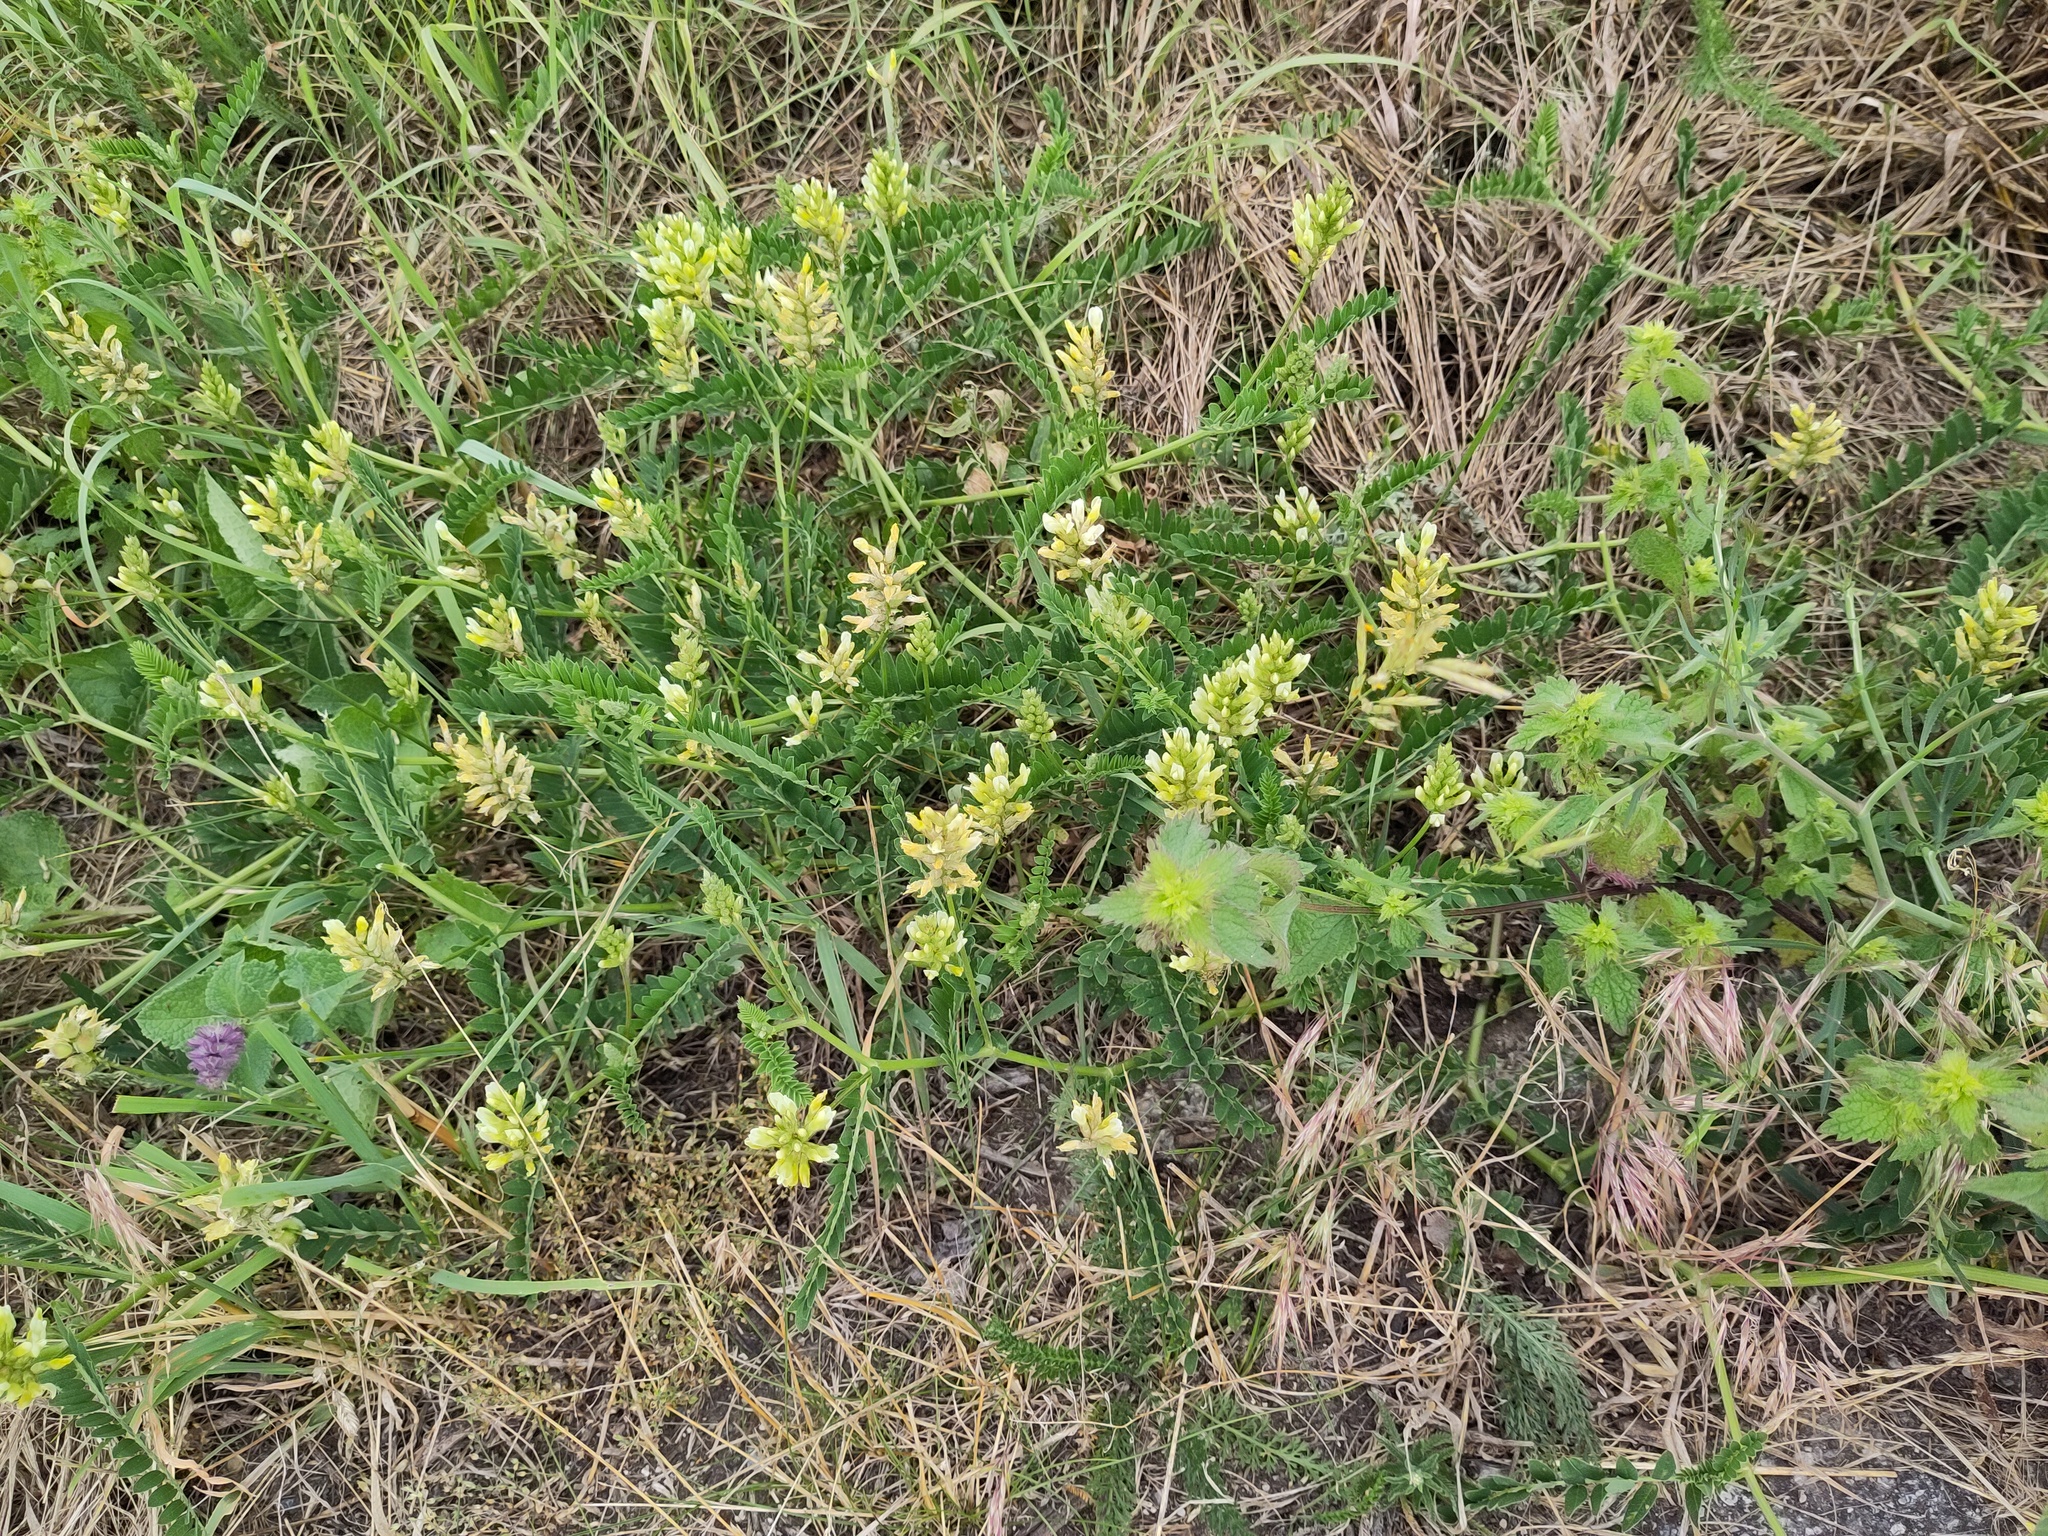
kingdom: Plantae
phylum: Tracheophyta
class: Magnoliopsida
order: Fabales
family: Fabaceae
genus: Astragalus
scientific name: Astragalus cicer
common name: Chick-pea milk-vetch
